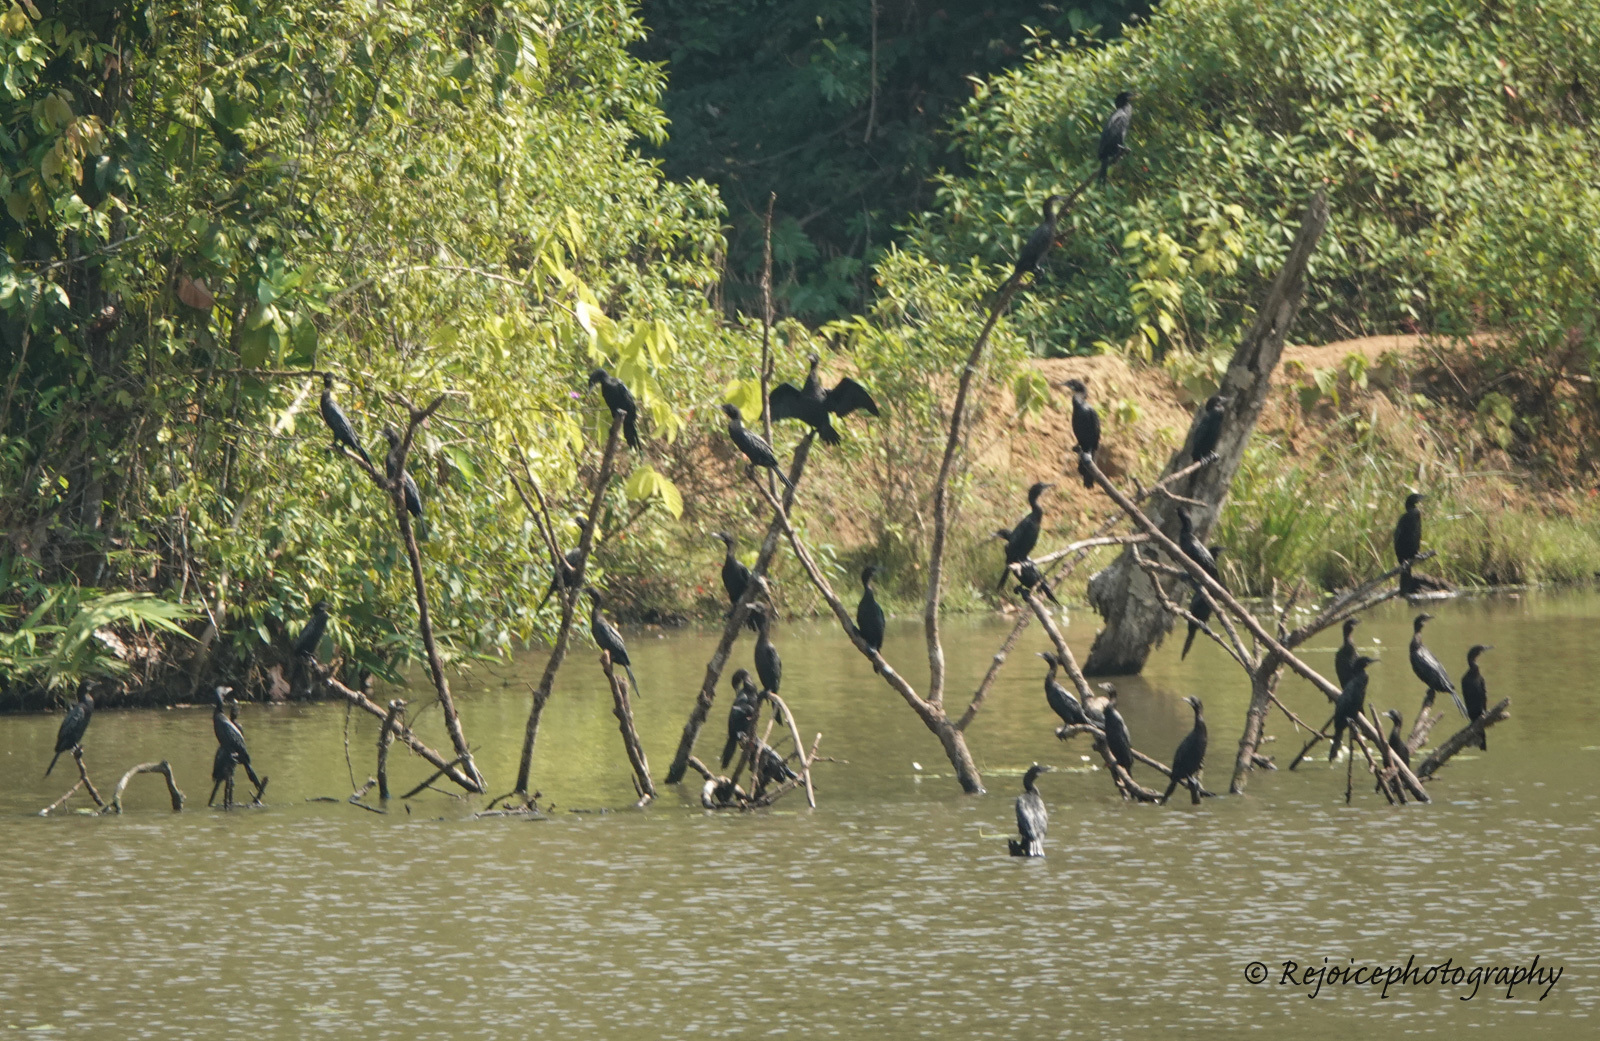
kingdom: Animalia
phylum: Chordata
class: Aves
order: Suliformes
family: Phalacrocoracidae
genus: Microcarbo
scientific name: Microcarbo niger
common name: Little cormorant
